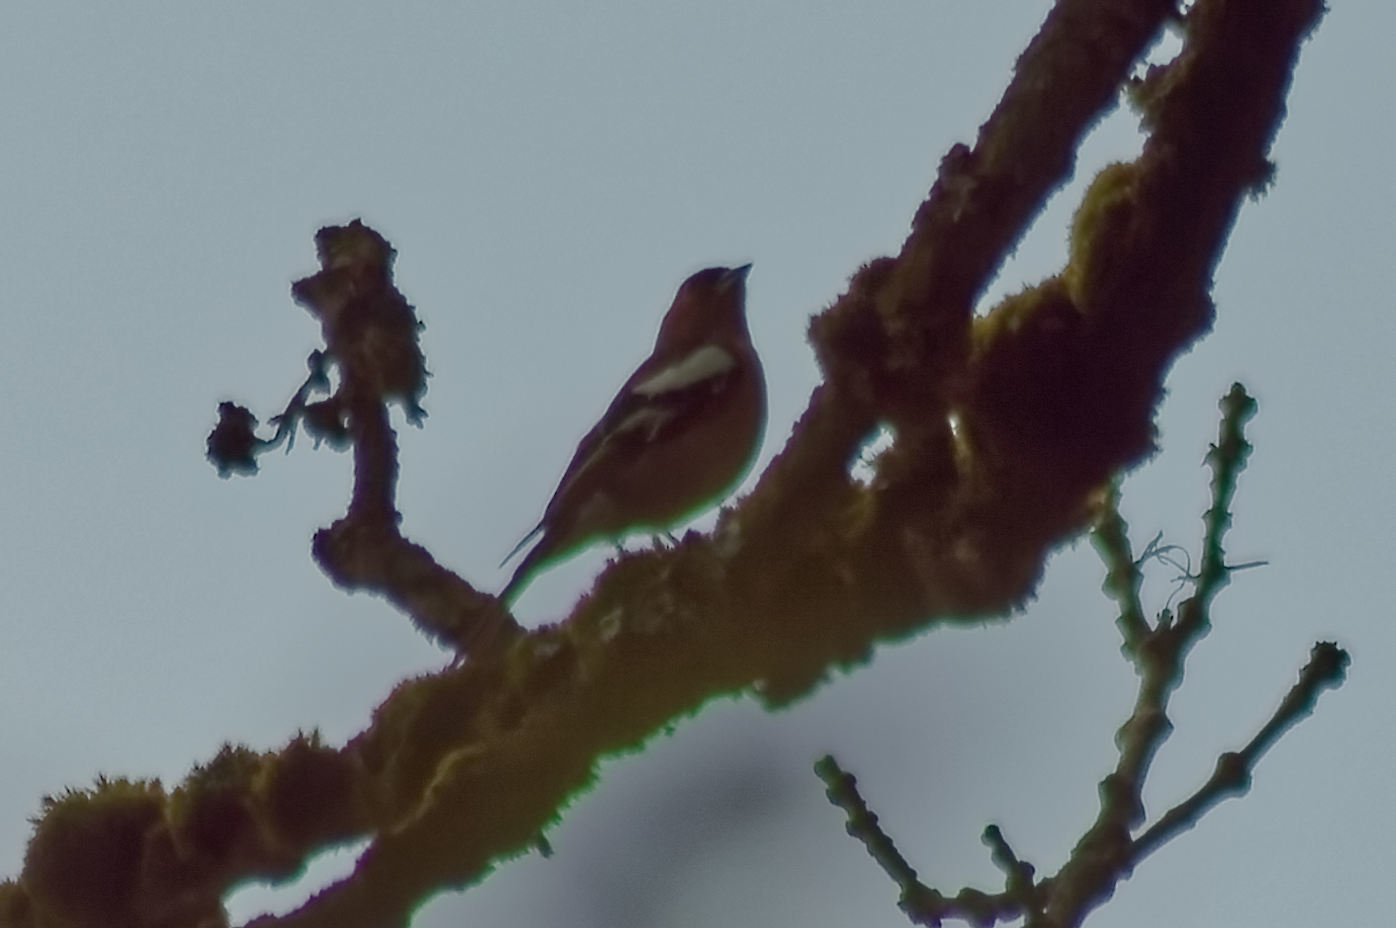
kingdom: Animalia
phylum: Chordata
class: Aves
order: Passeriformes
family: Fringillidae
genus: Fringilla
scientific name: Fringilla coelebs
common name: Common chaffinch
